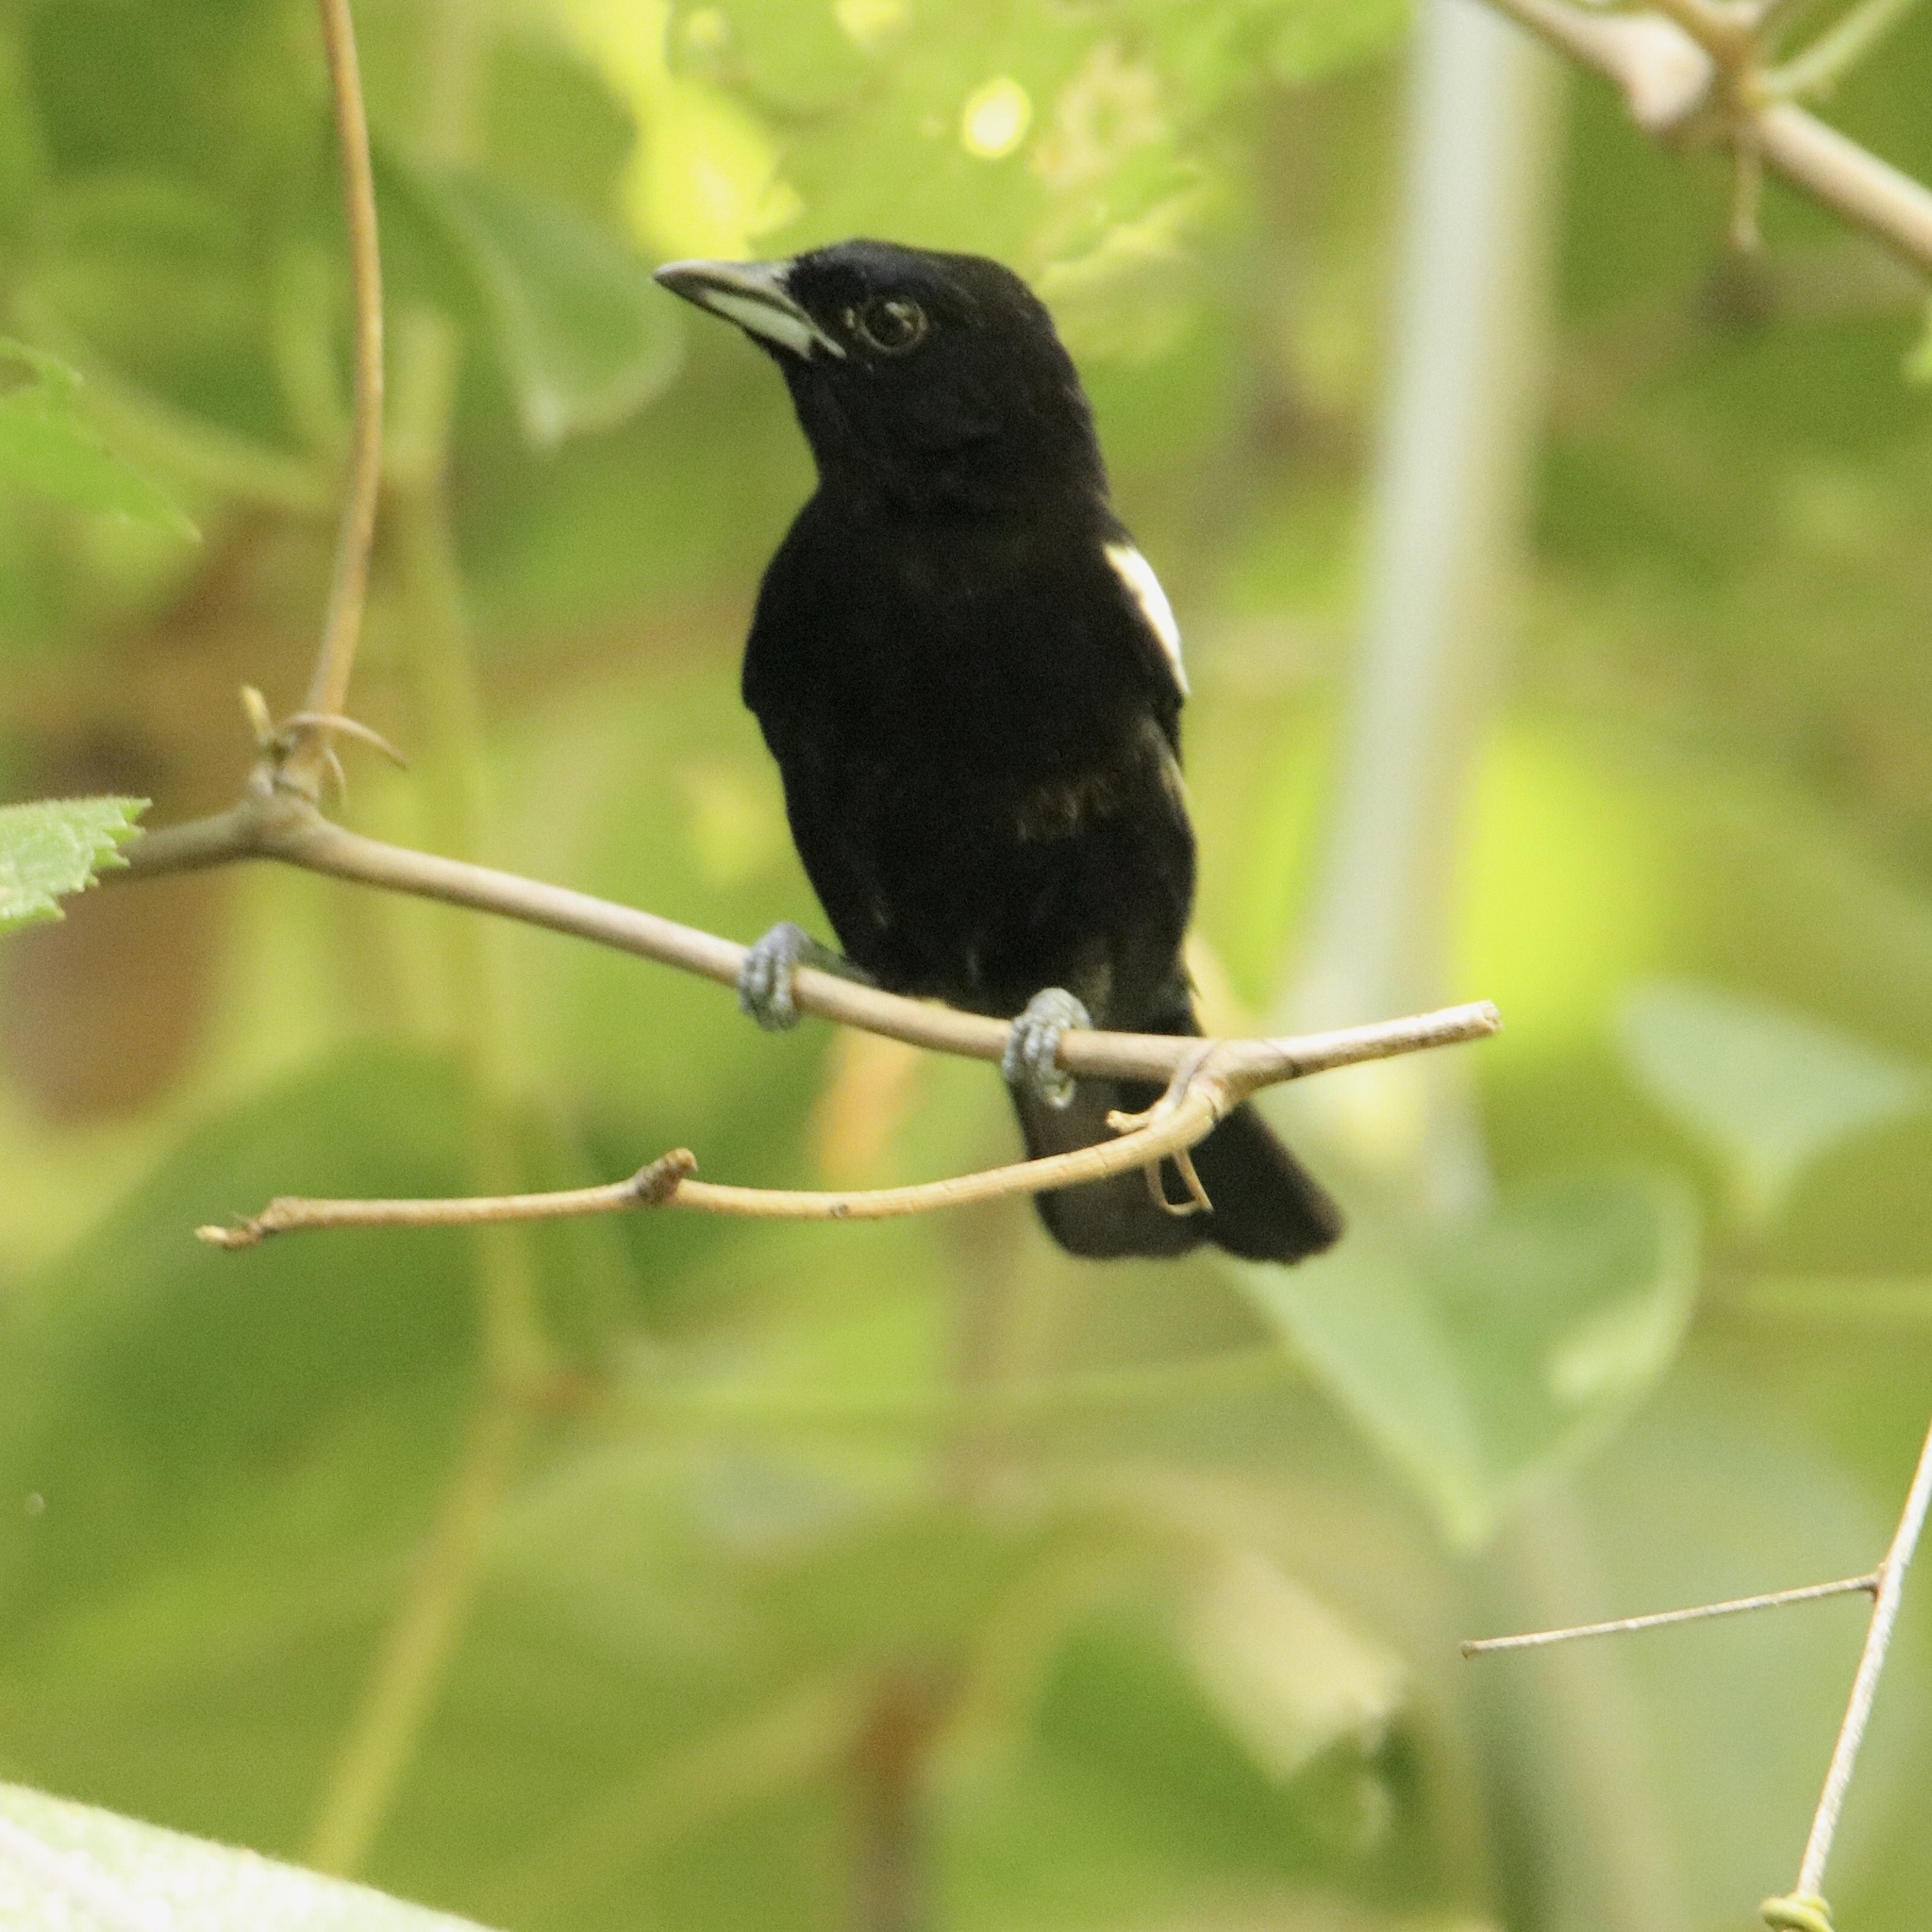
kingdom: Animalia
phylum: Chordata
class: Aves
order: Passeriformes
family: Thraupidae
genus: Loriotus
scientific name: Loriotus luctuosus
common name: White-shouldered tanager
